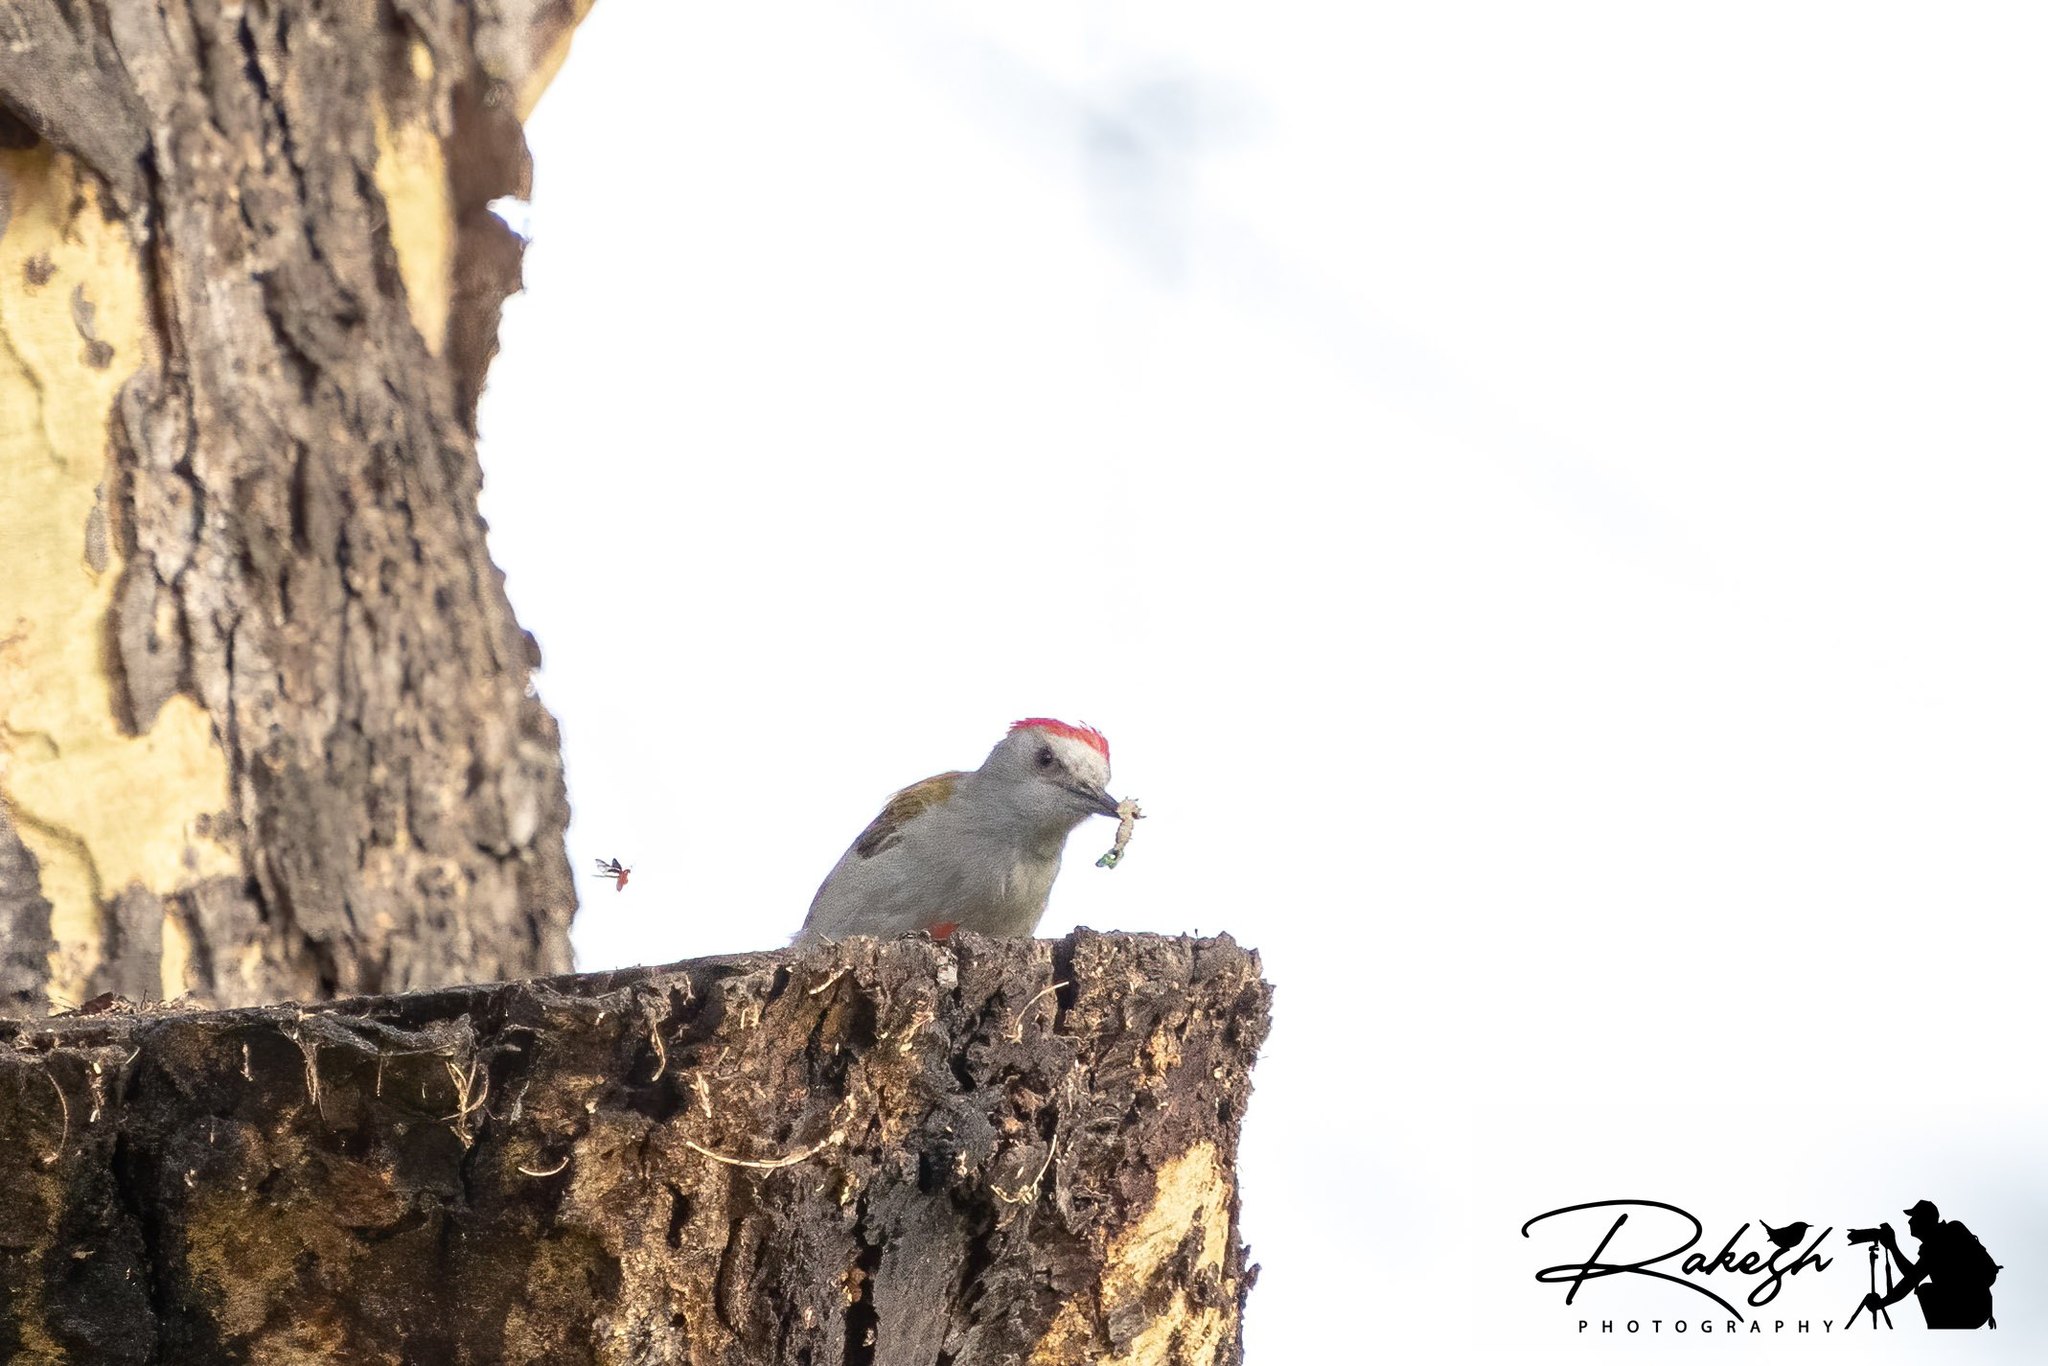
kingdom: Animalia
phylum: Chordata
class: Aves
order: Piciformes
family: Picidae
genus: Dendropicos
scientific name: Dendropicos spodocephalus
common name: Eastern grey woodpecker
